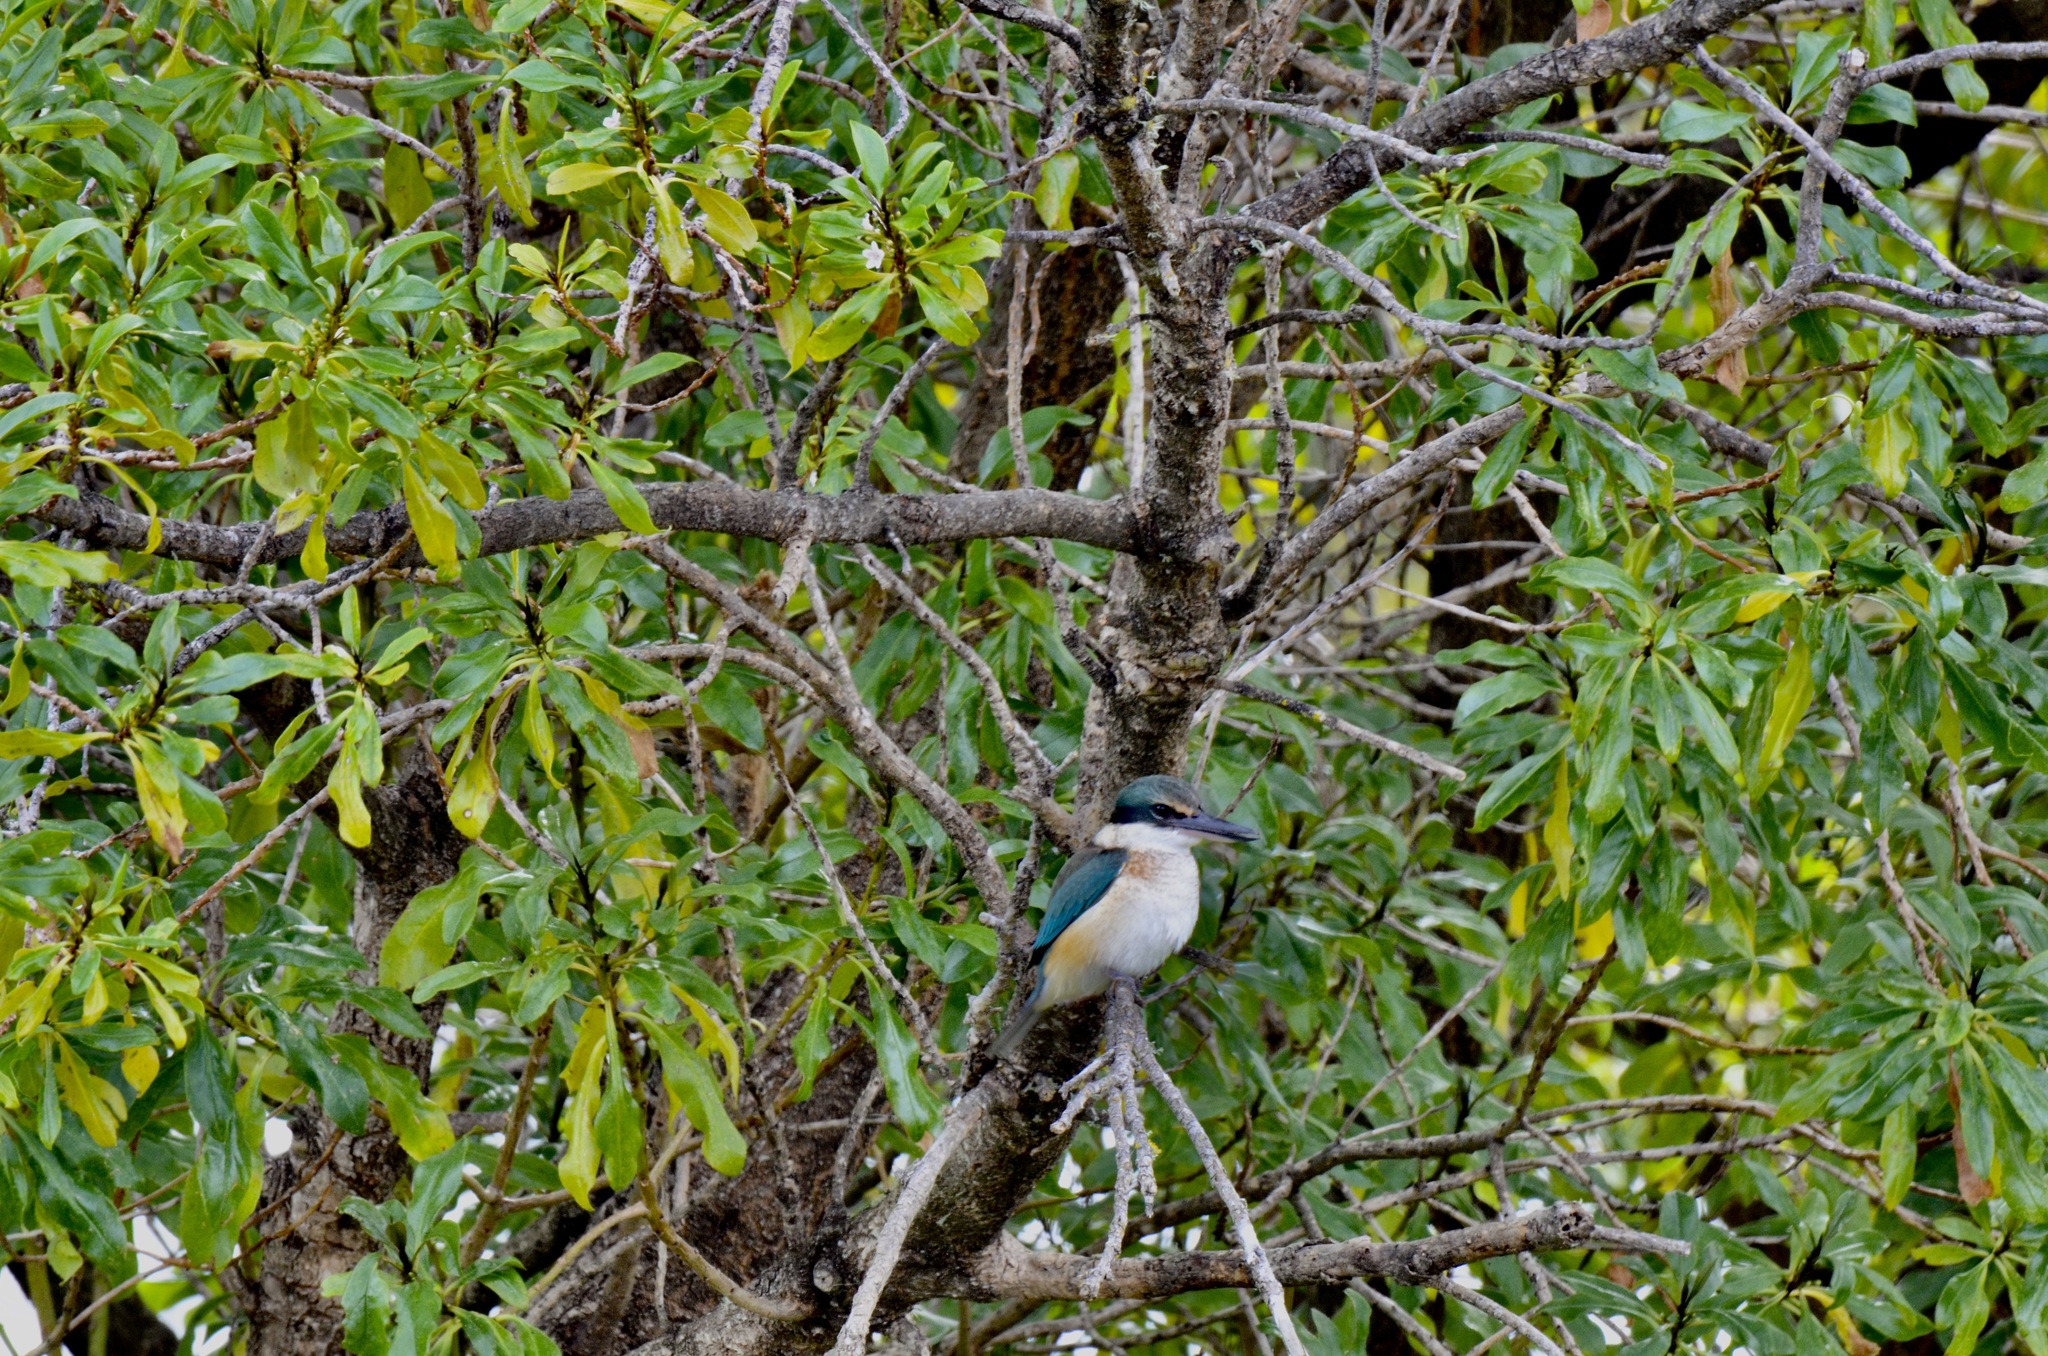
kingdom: Animalia
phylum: Chordata
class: Aves
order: Coraciiformes
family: Alcedinidae
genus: Todiramphus
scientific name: Todiramphus sanctus
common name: Sacred kingfisher
